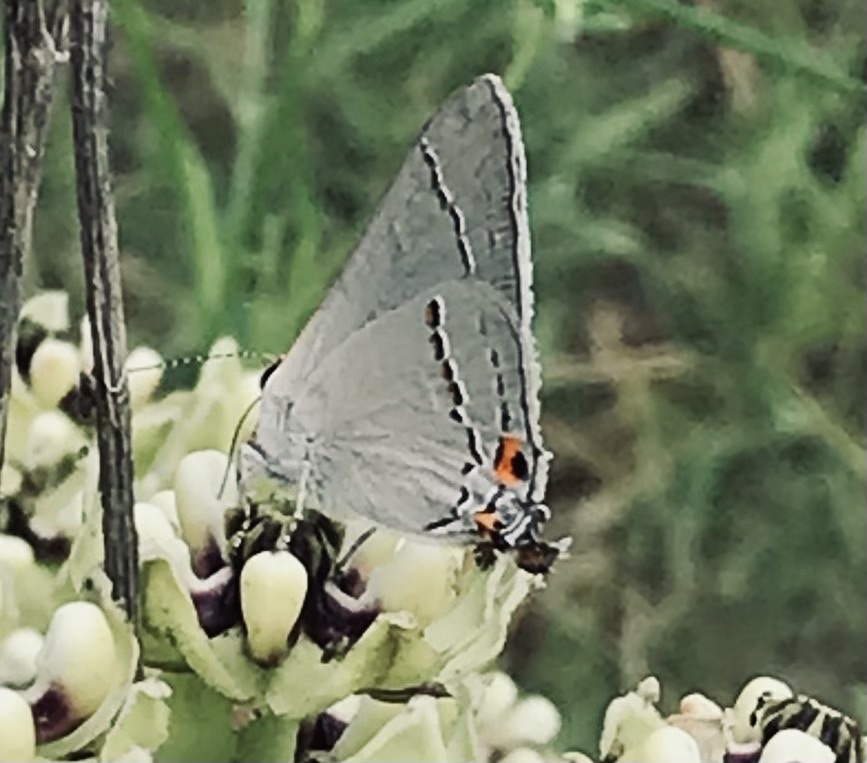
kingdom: Animalia
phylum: Arthropoda
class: Insecta
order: Lepidoptera
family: Lycaenidae
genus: Strymon
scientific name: Strymon melinus
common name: Gray hairstreak
